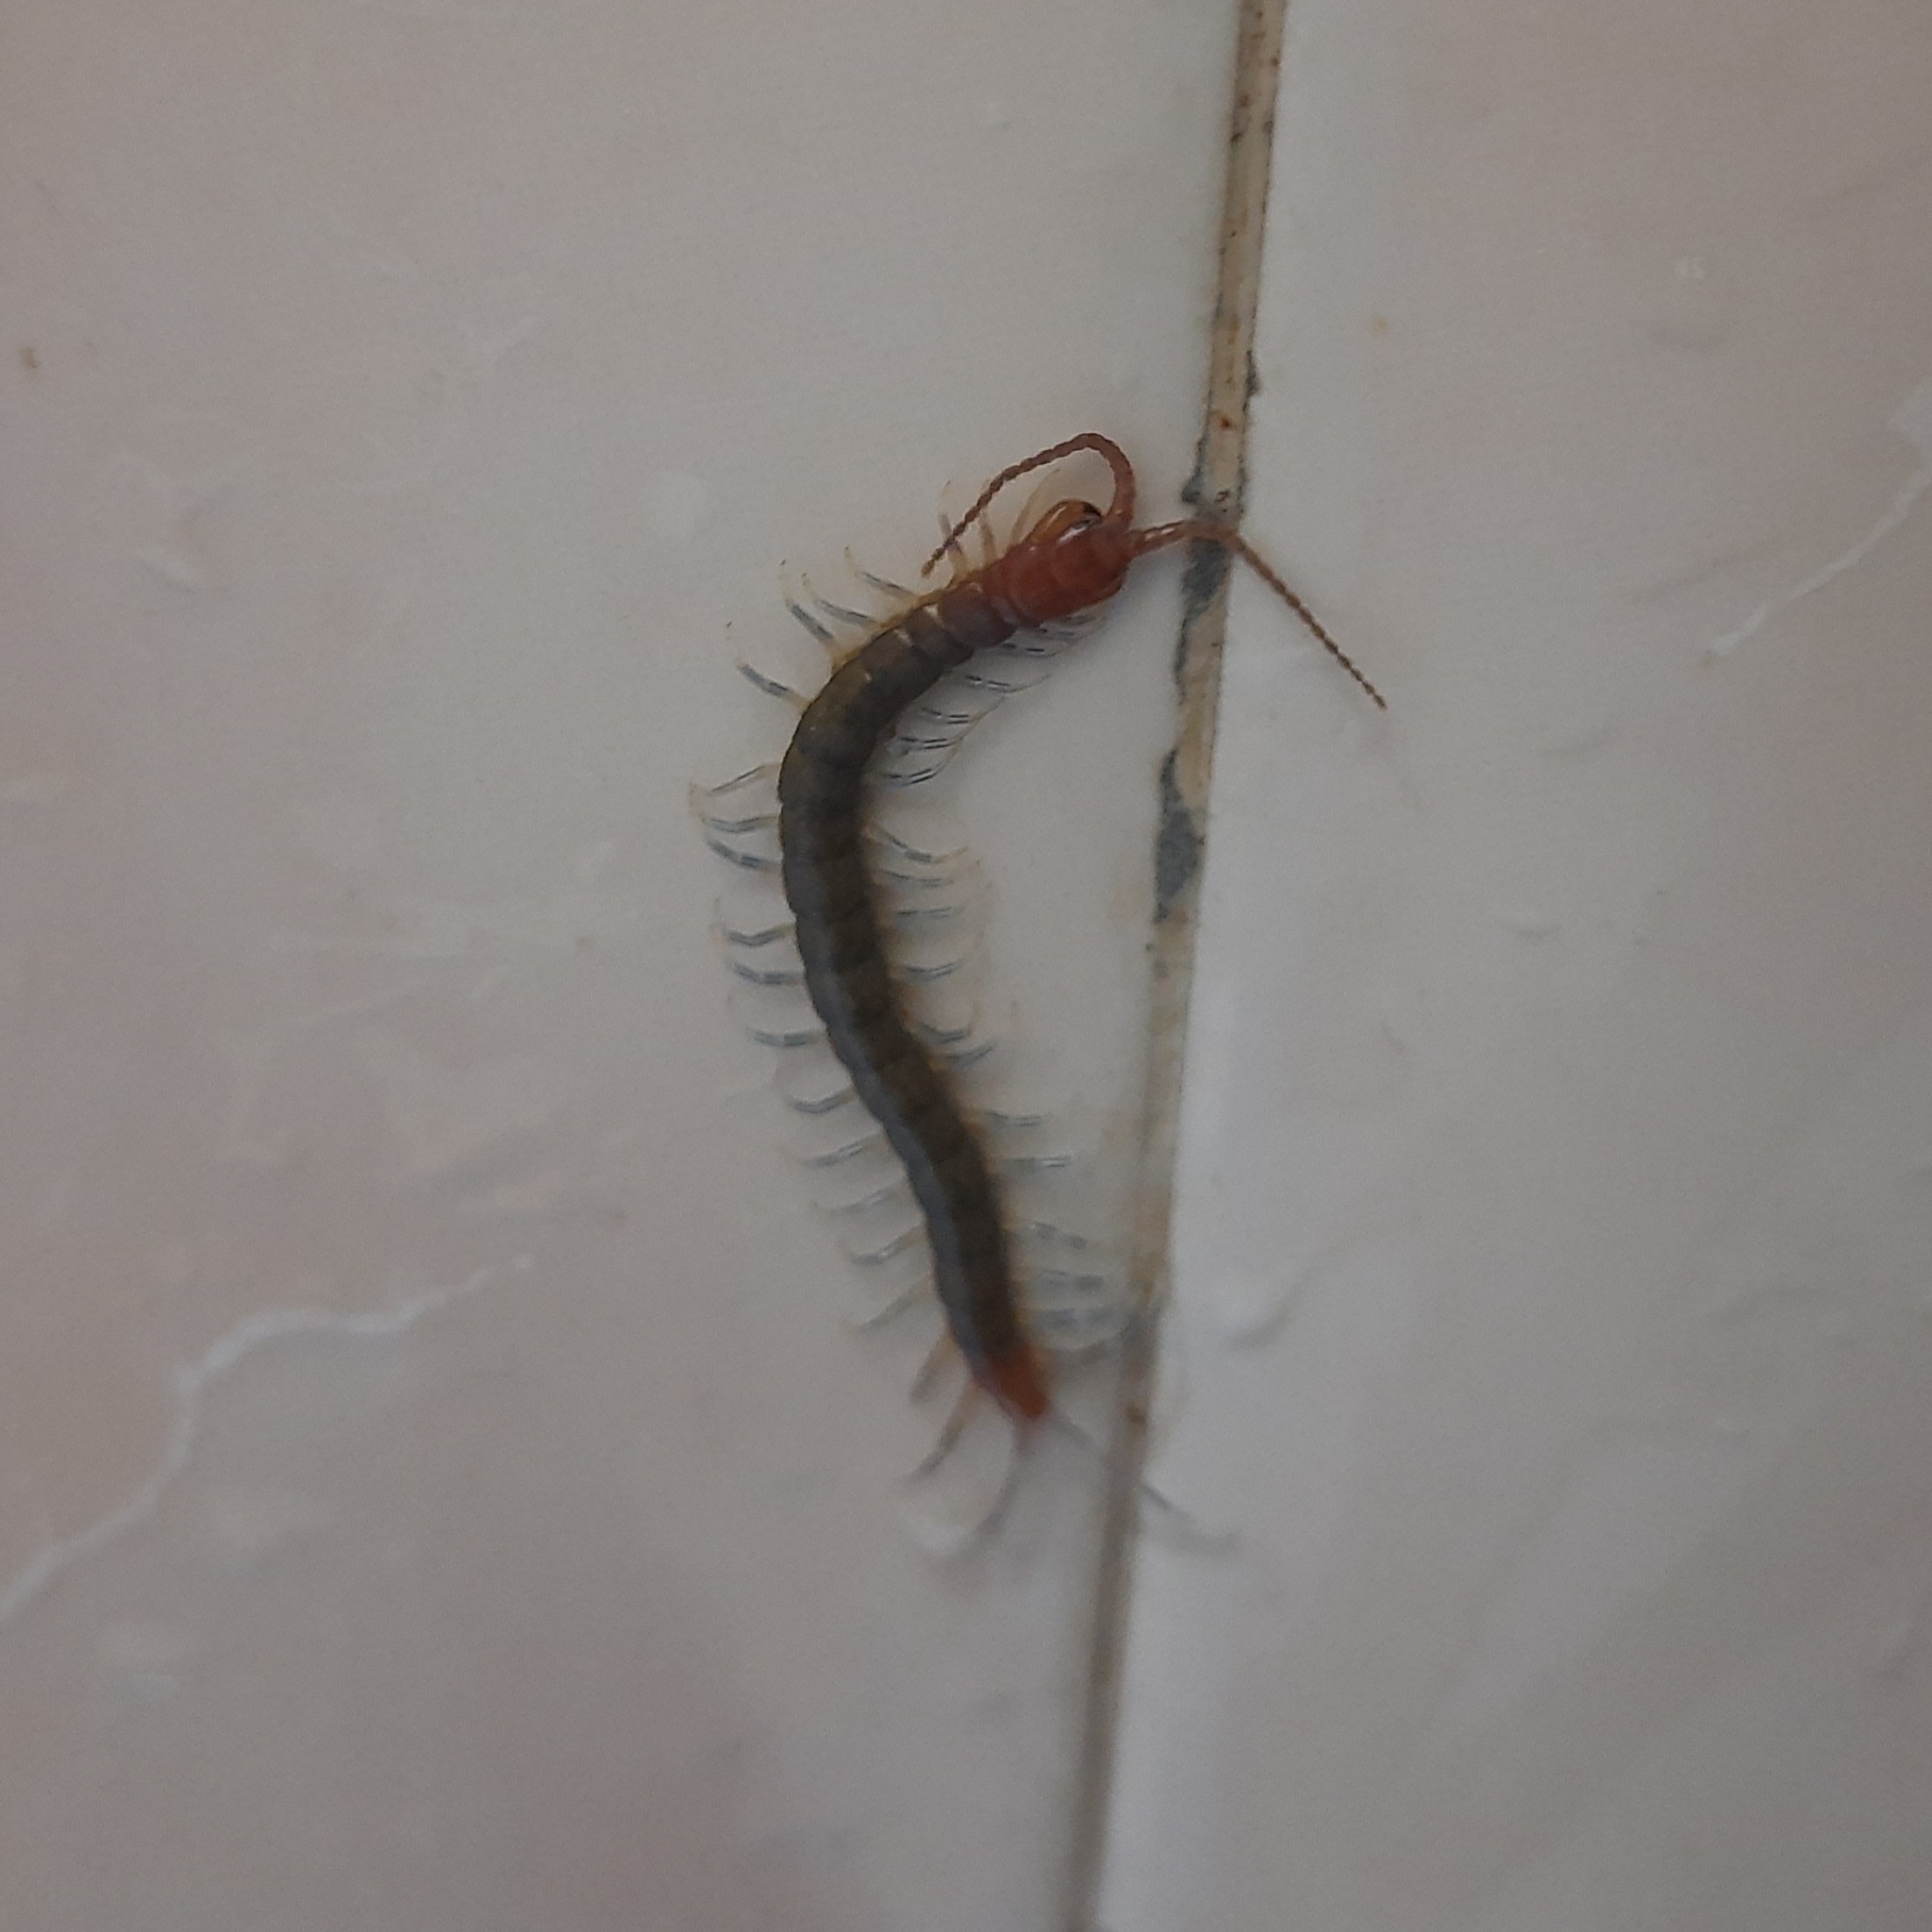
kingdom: Animalia
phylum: Arthropoda
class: Chilopoda
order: Scolopendromorpha
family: Scolopendridae
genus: Rhysida
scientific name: Rhysida longipes
